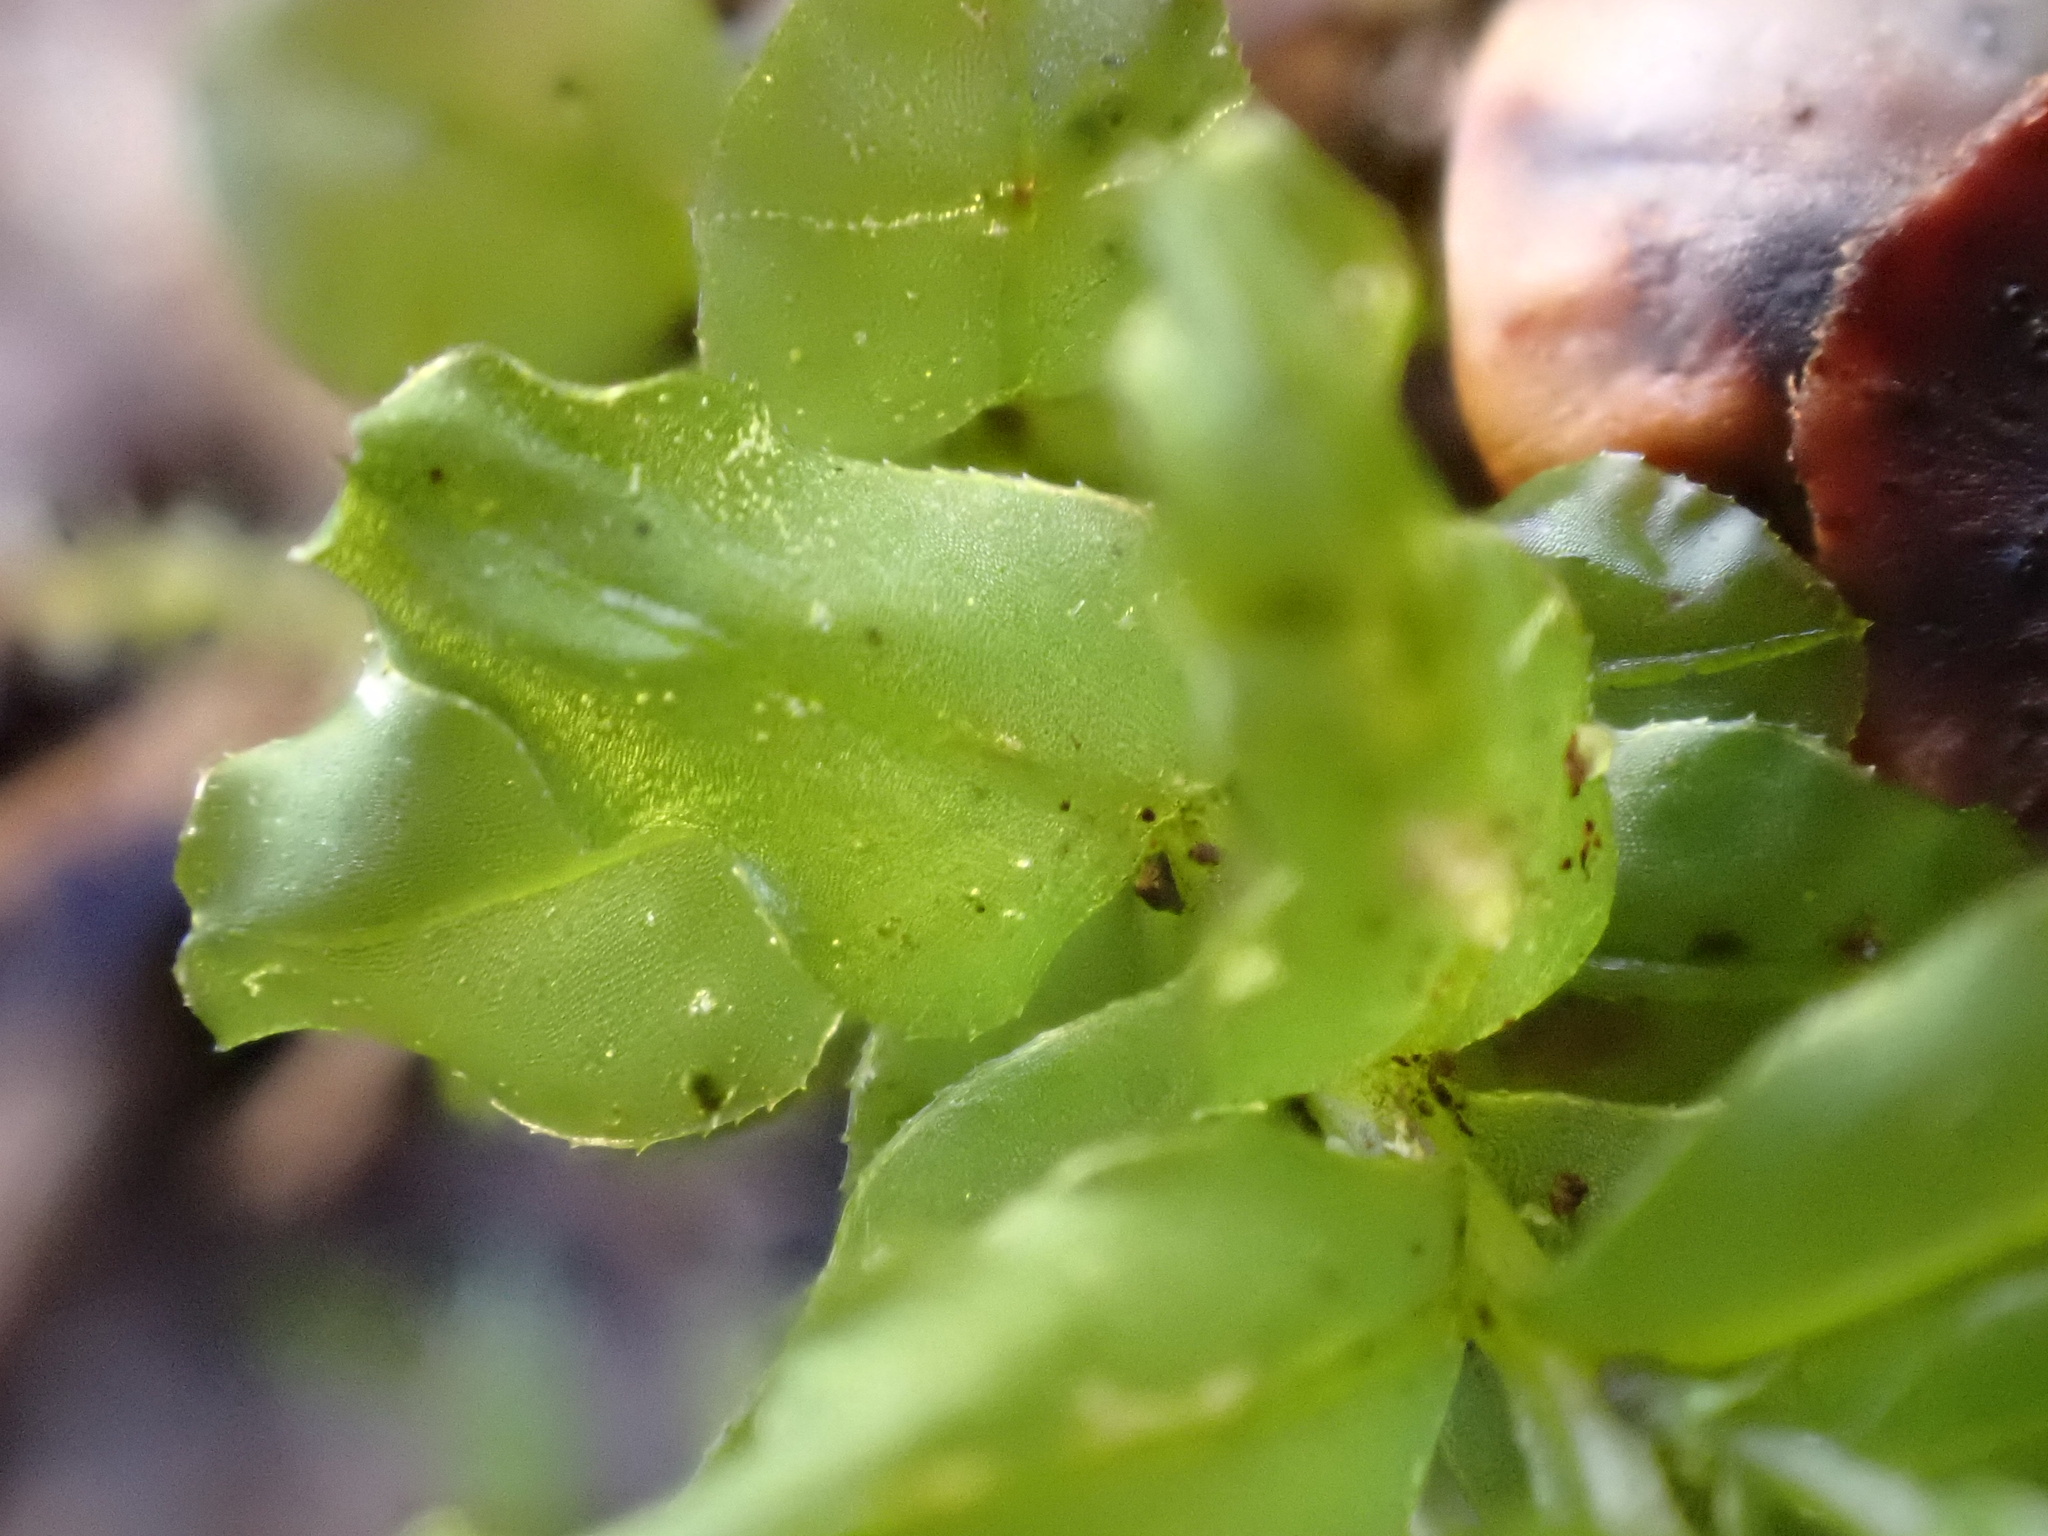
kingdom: Plantae
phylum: Bryophyta
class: Bryopsida
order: Bryales
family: Mniaceae
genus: Plagiomnium
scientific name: Plagiomnium undulatum
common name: Hart's-tongue thyme-moss
